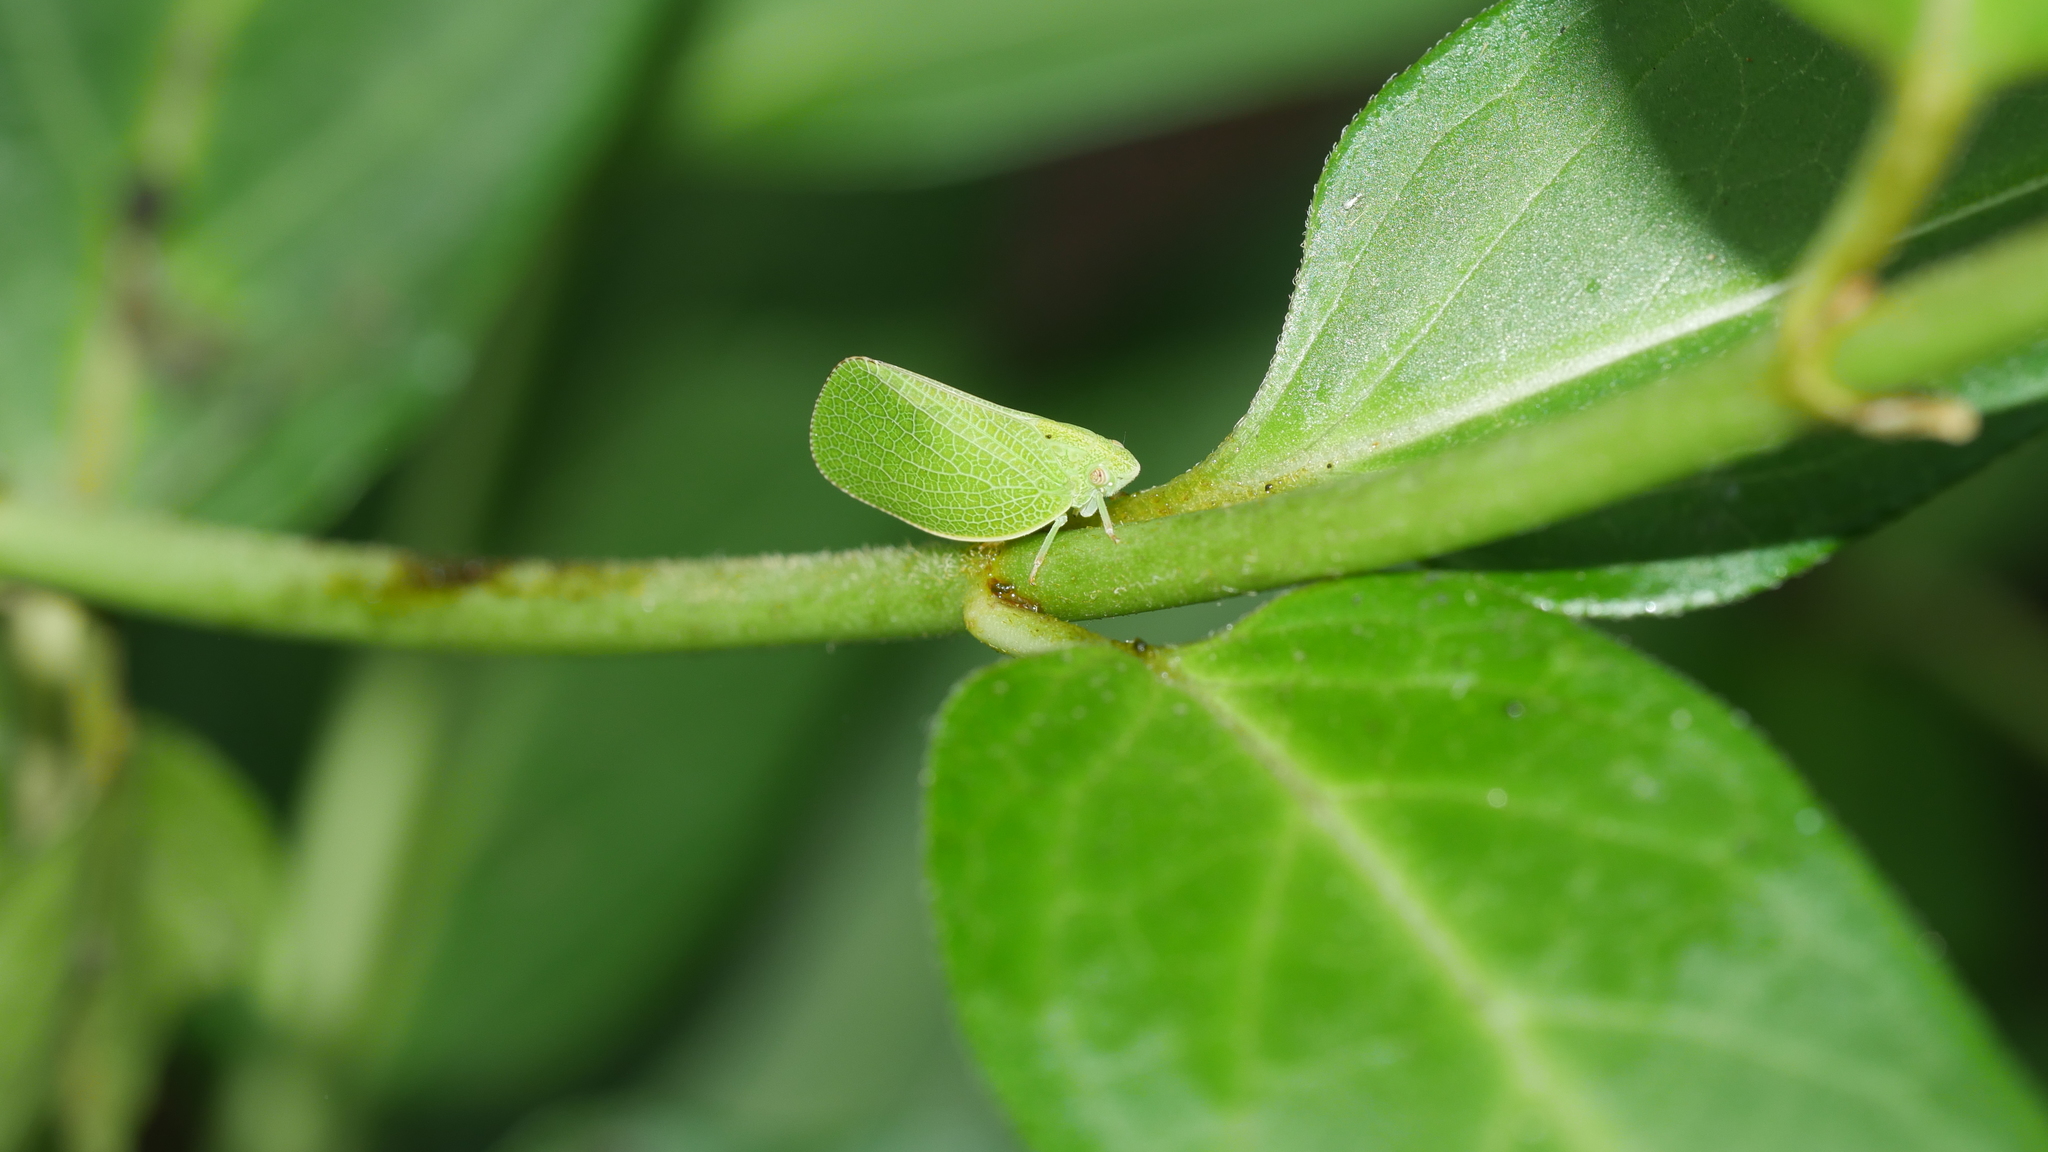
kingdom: Animalia
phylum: Arthropoda
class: Insecta
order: Hemiptera
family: Acanaloniidae
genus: Acanalonia
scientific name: Acanalonia conica
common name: Green cone-headed planthopper
